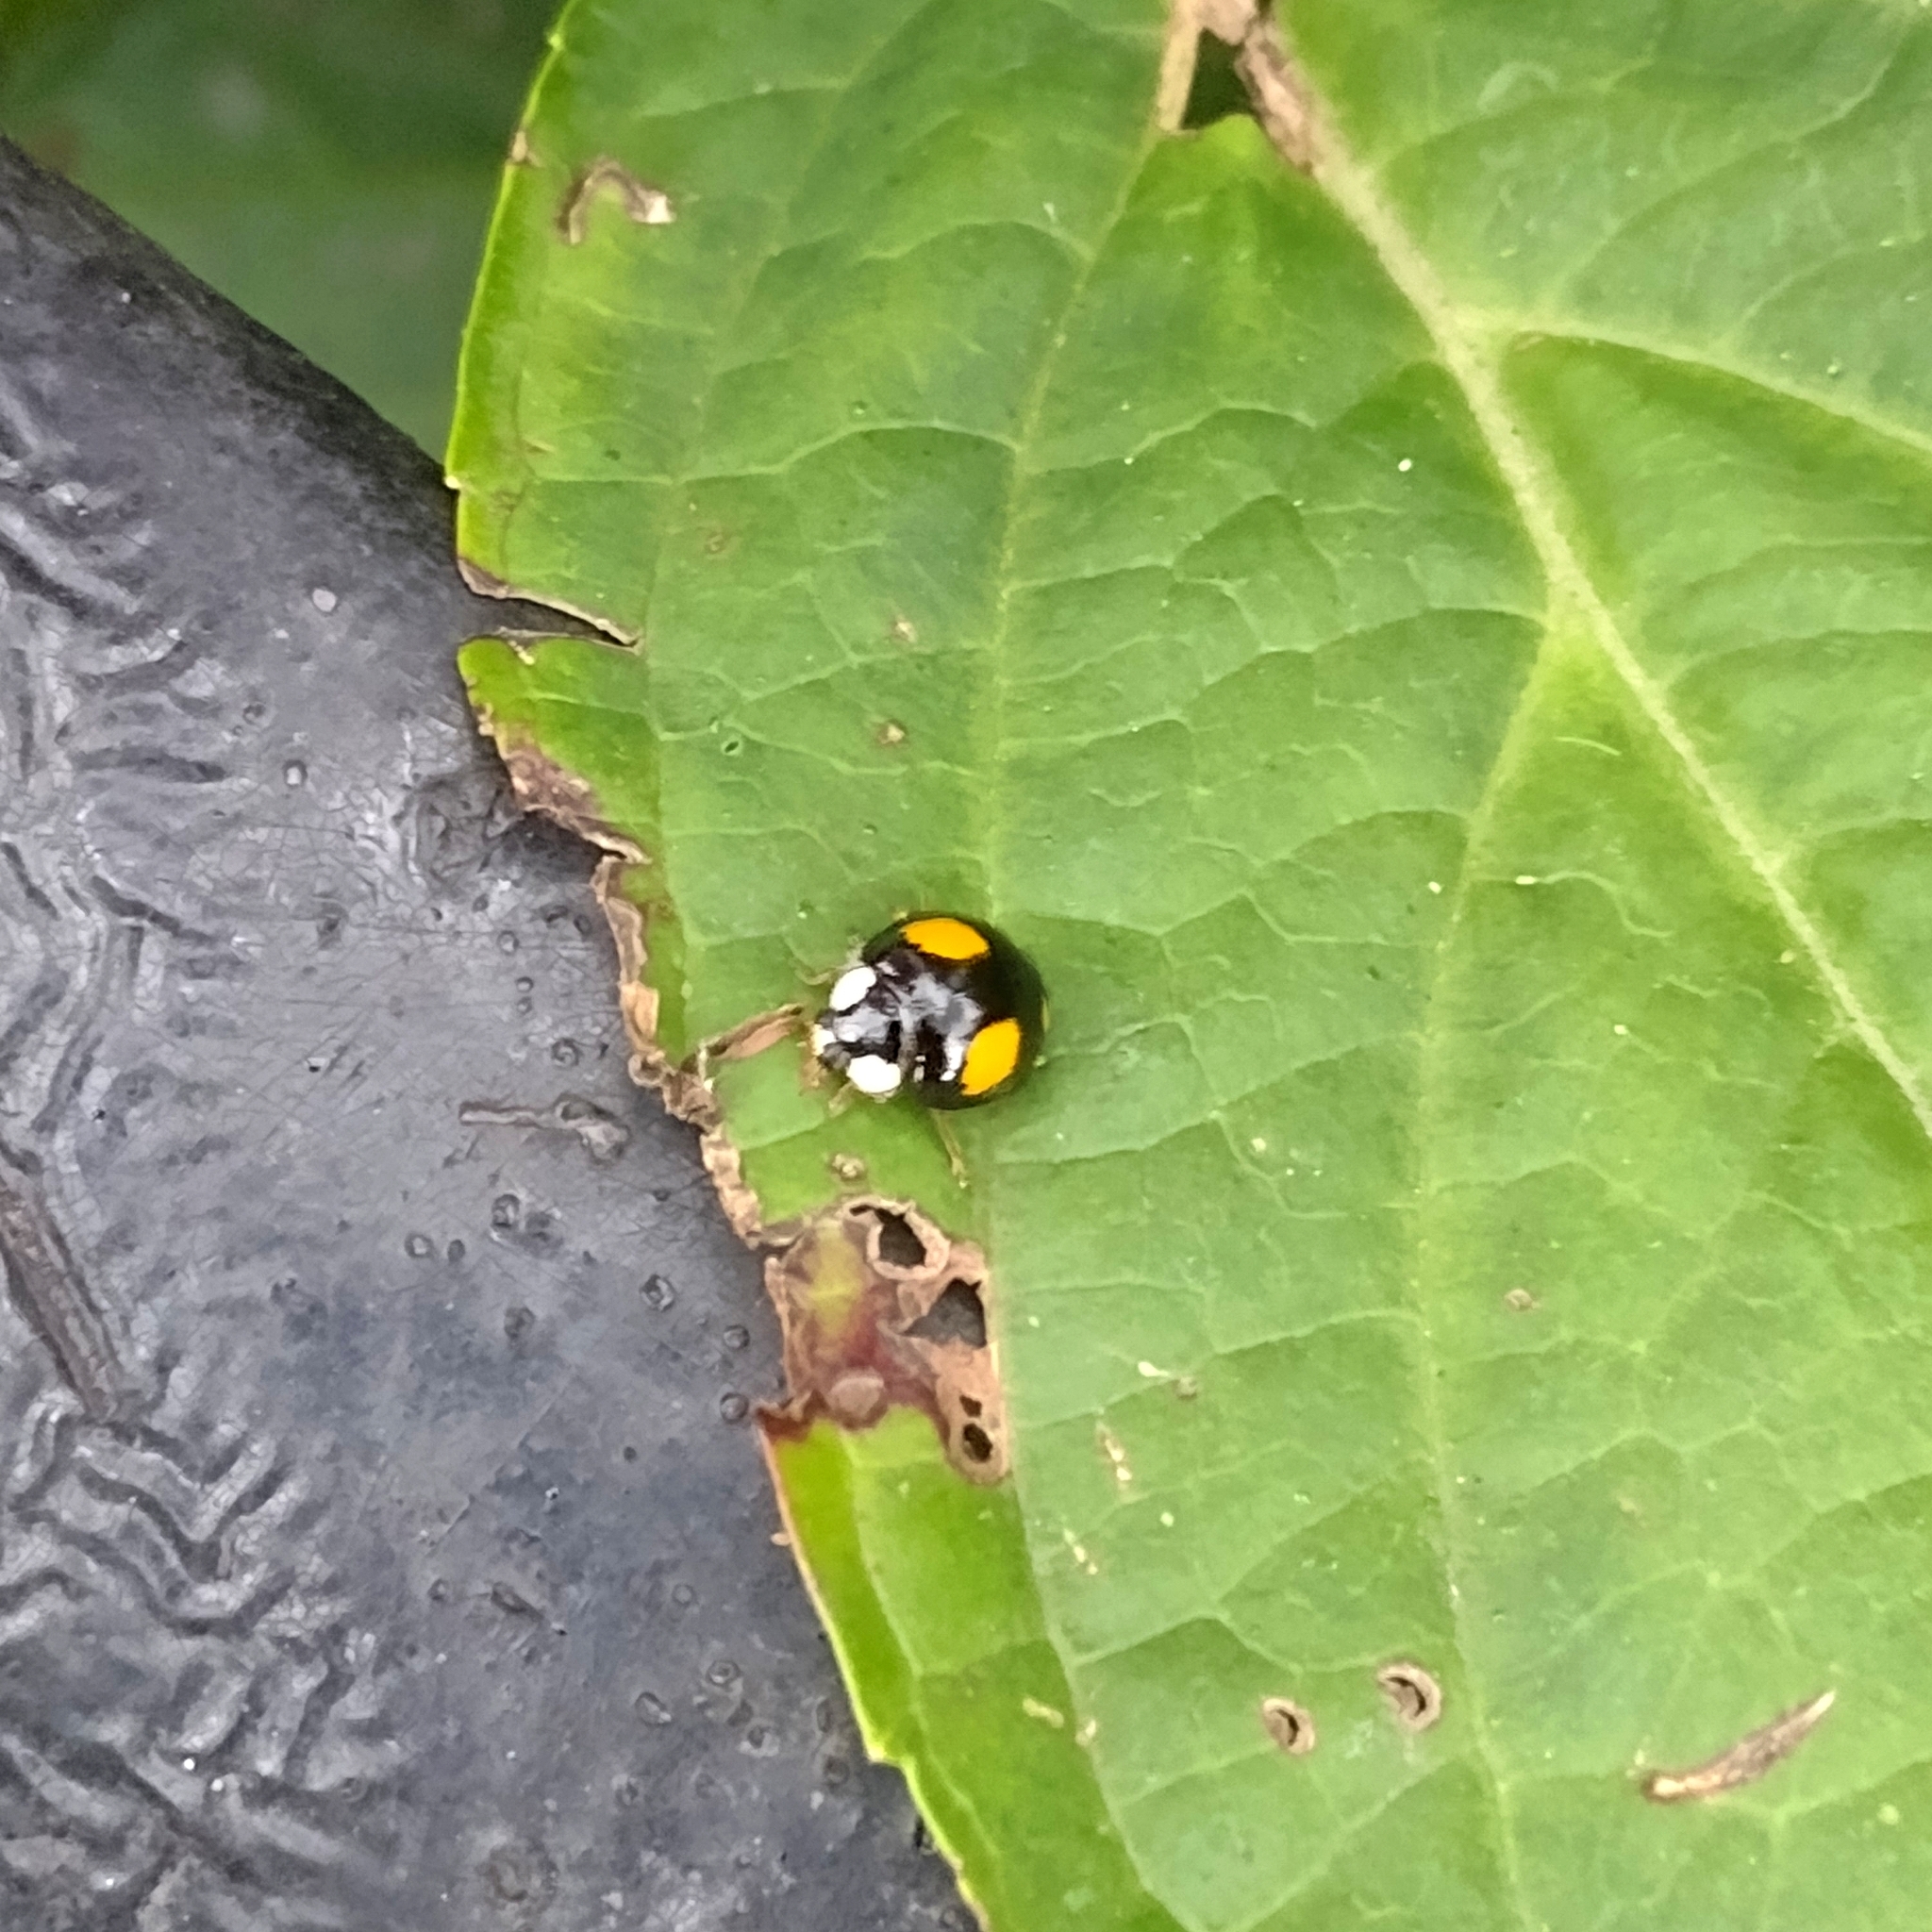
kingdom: Animalia
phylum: Arthropoda
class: Insecta
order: Coleoptera
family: Coccinellidae
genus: Harmonia
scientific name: Harmonia axyridis
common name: Harlequin ladybird
